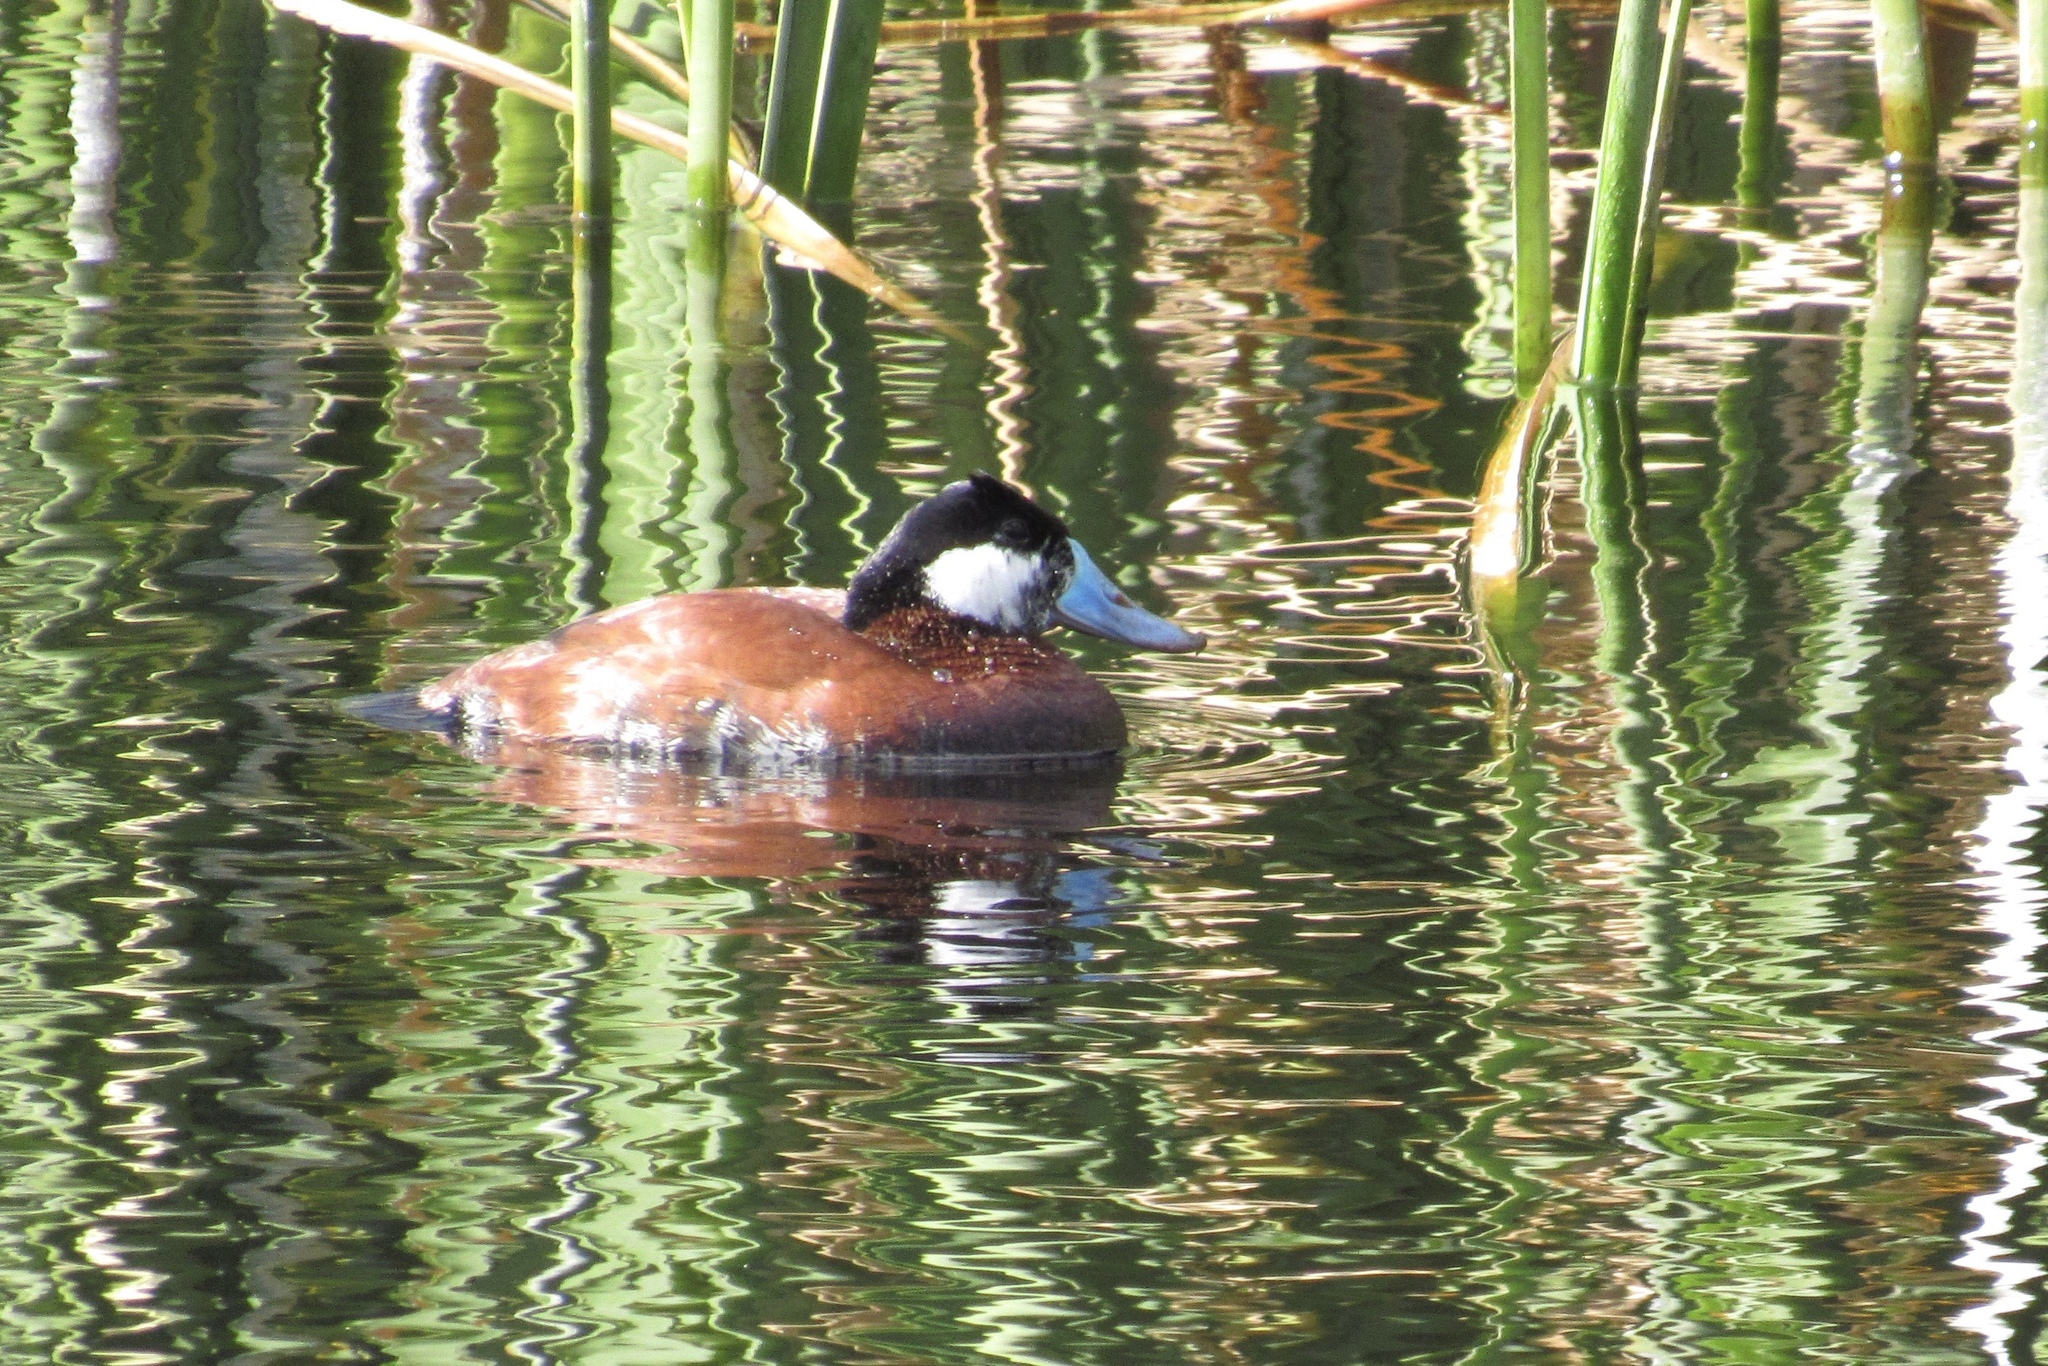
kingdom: Animalia
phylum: Chordata
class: Aves
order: Anseriformes
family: Anatidae
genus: Oxyura
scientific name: Oxyura jamaicensis
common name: Ruddy duck
